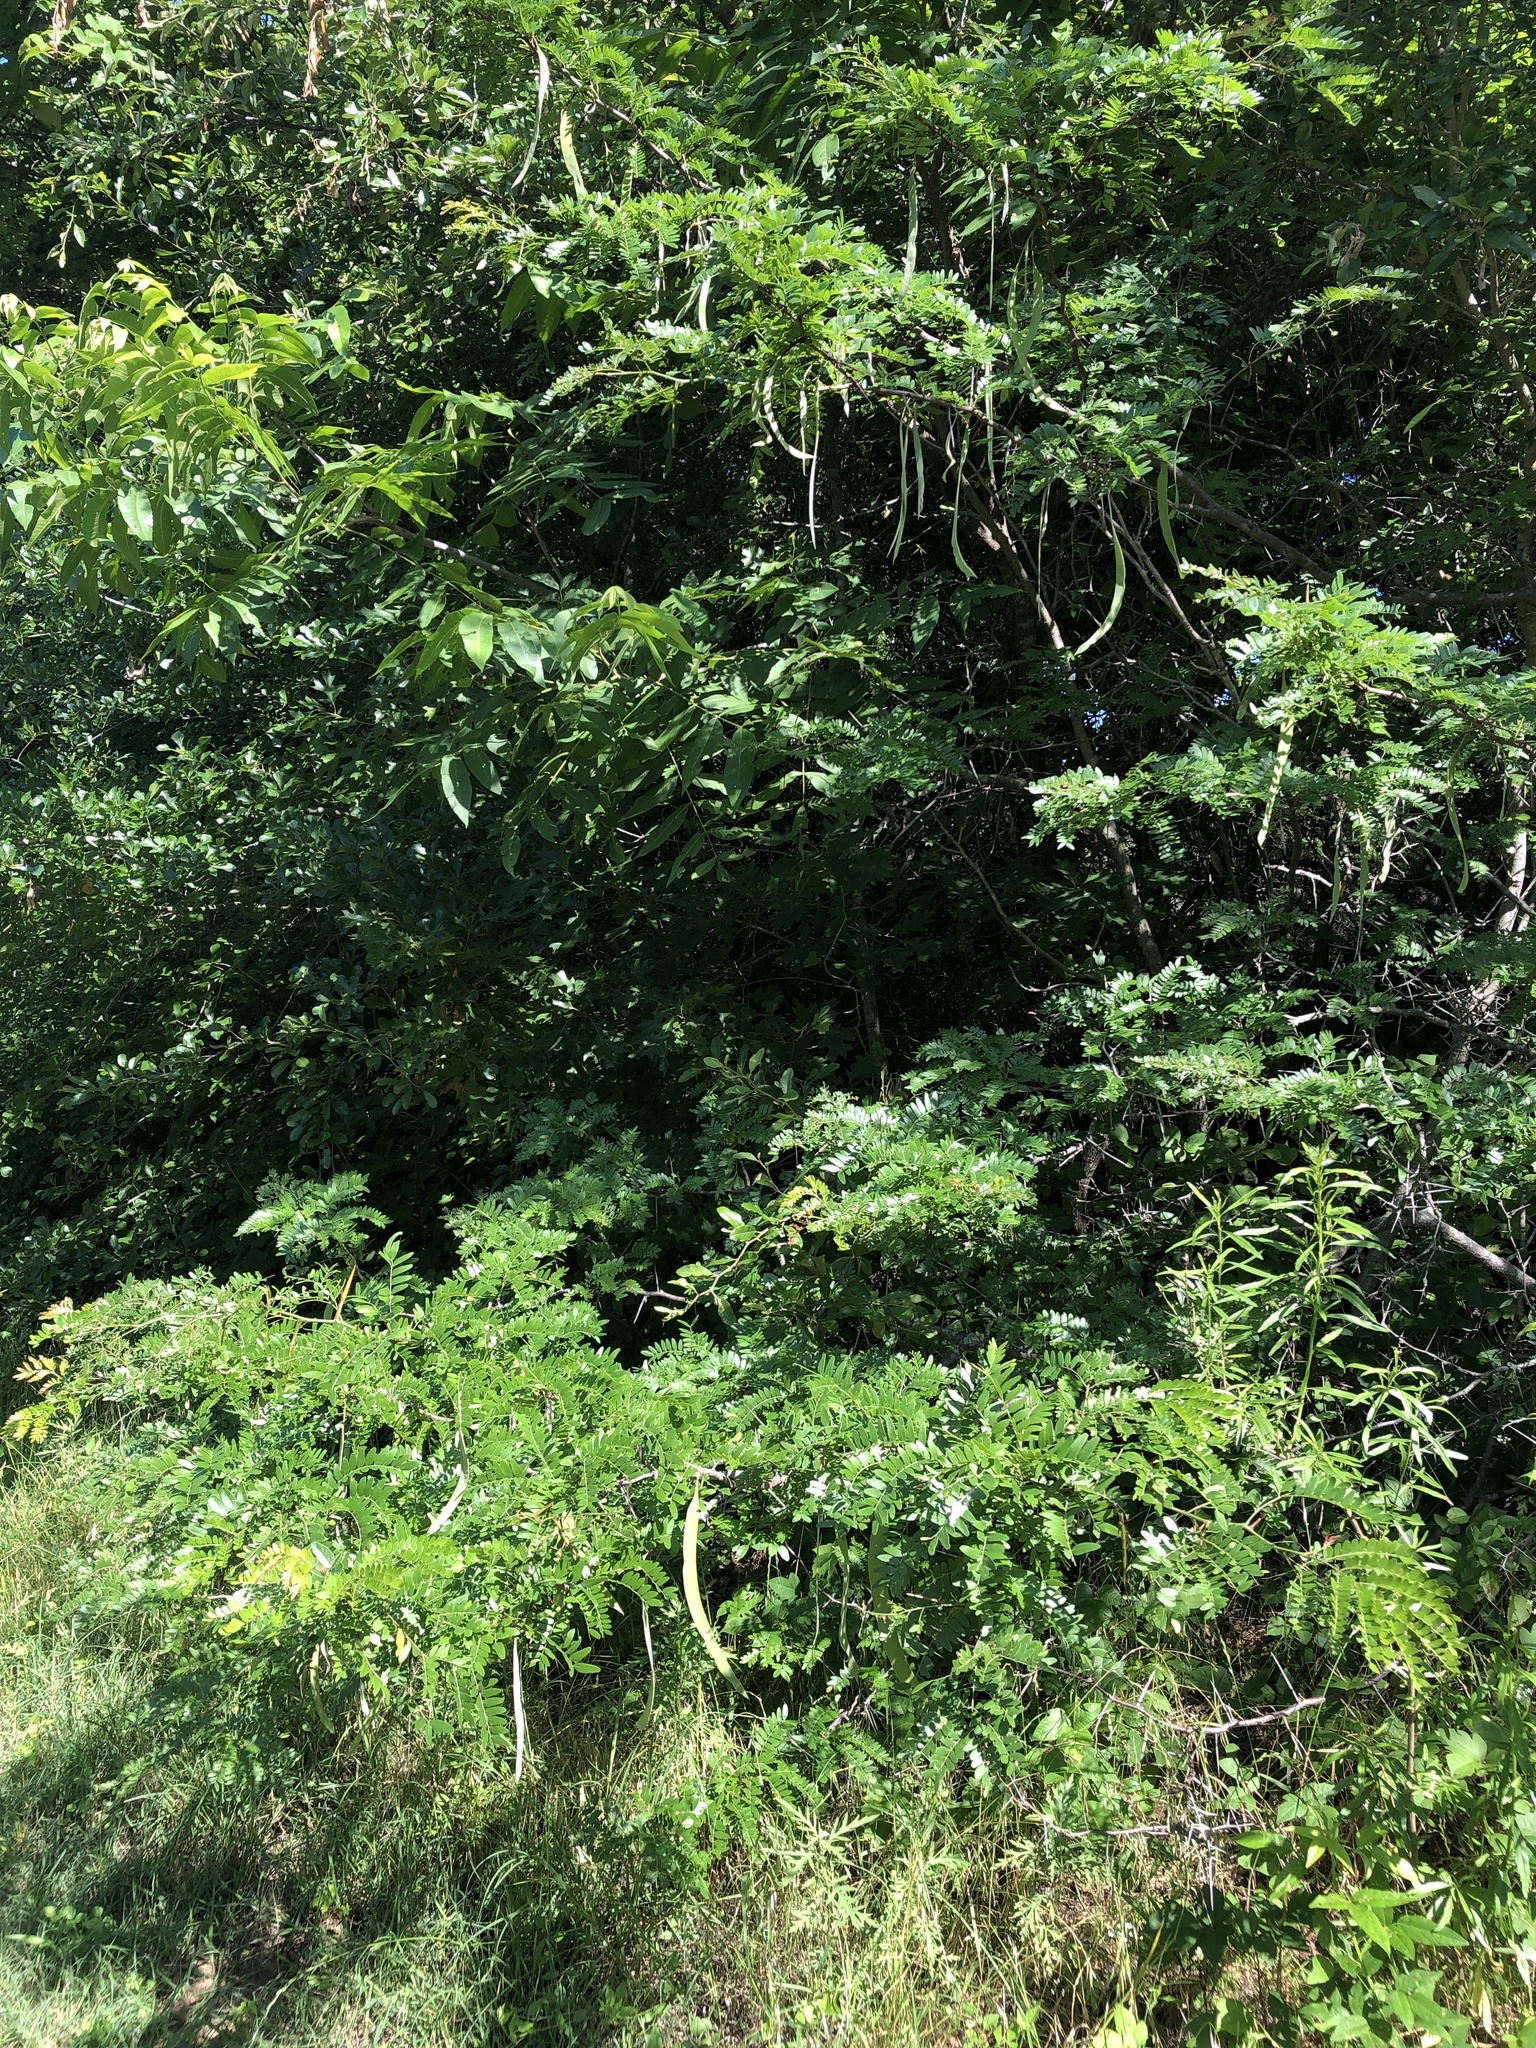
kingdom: Plantae
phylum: Tracheophyta
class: Magnoliopsida
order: Fabales
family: Fabaceae
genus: Gleditsia
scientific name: Gleditsia triacanthos
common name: Common honeylocust
